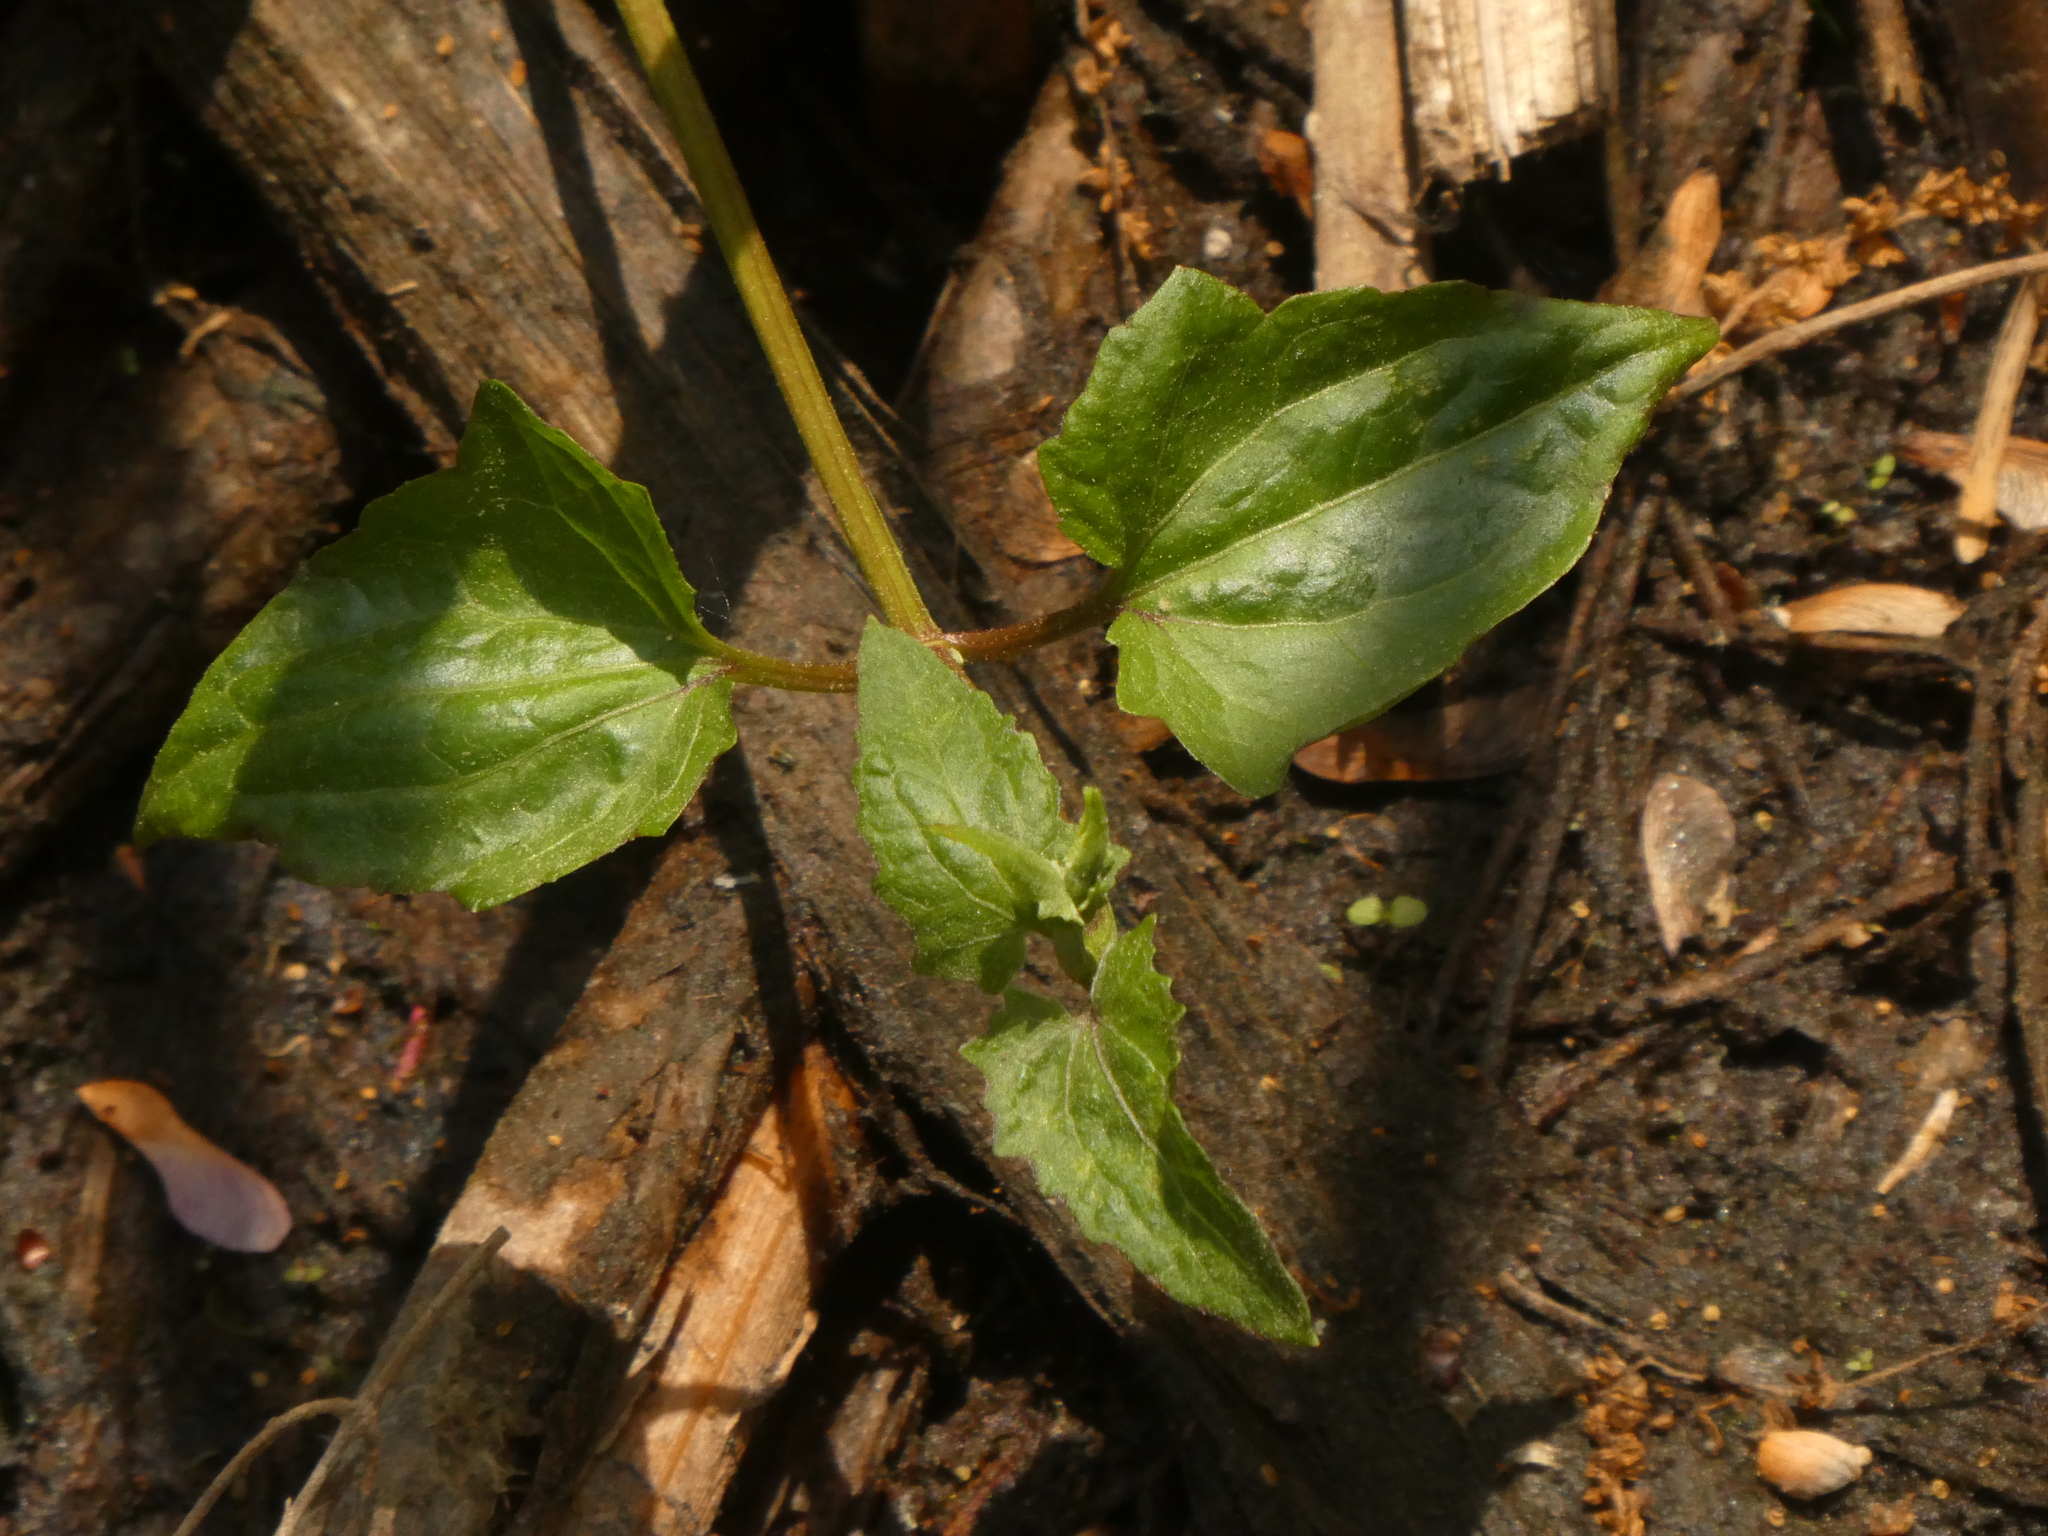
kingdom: Plantae
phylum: Tracheophyta
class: Magnoliopsida
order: Asterales
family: Asteraceae
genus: Mikania
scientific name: Mikania scandens
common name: Climbing hempvine
